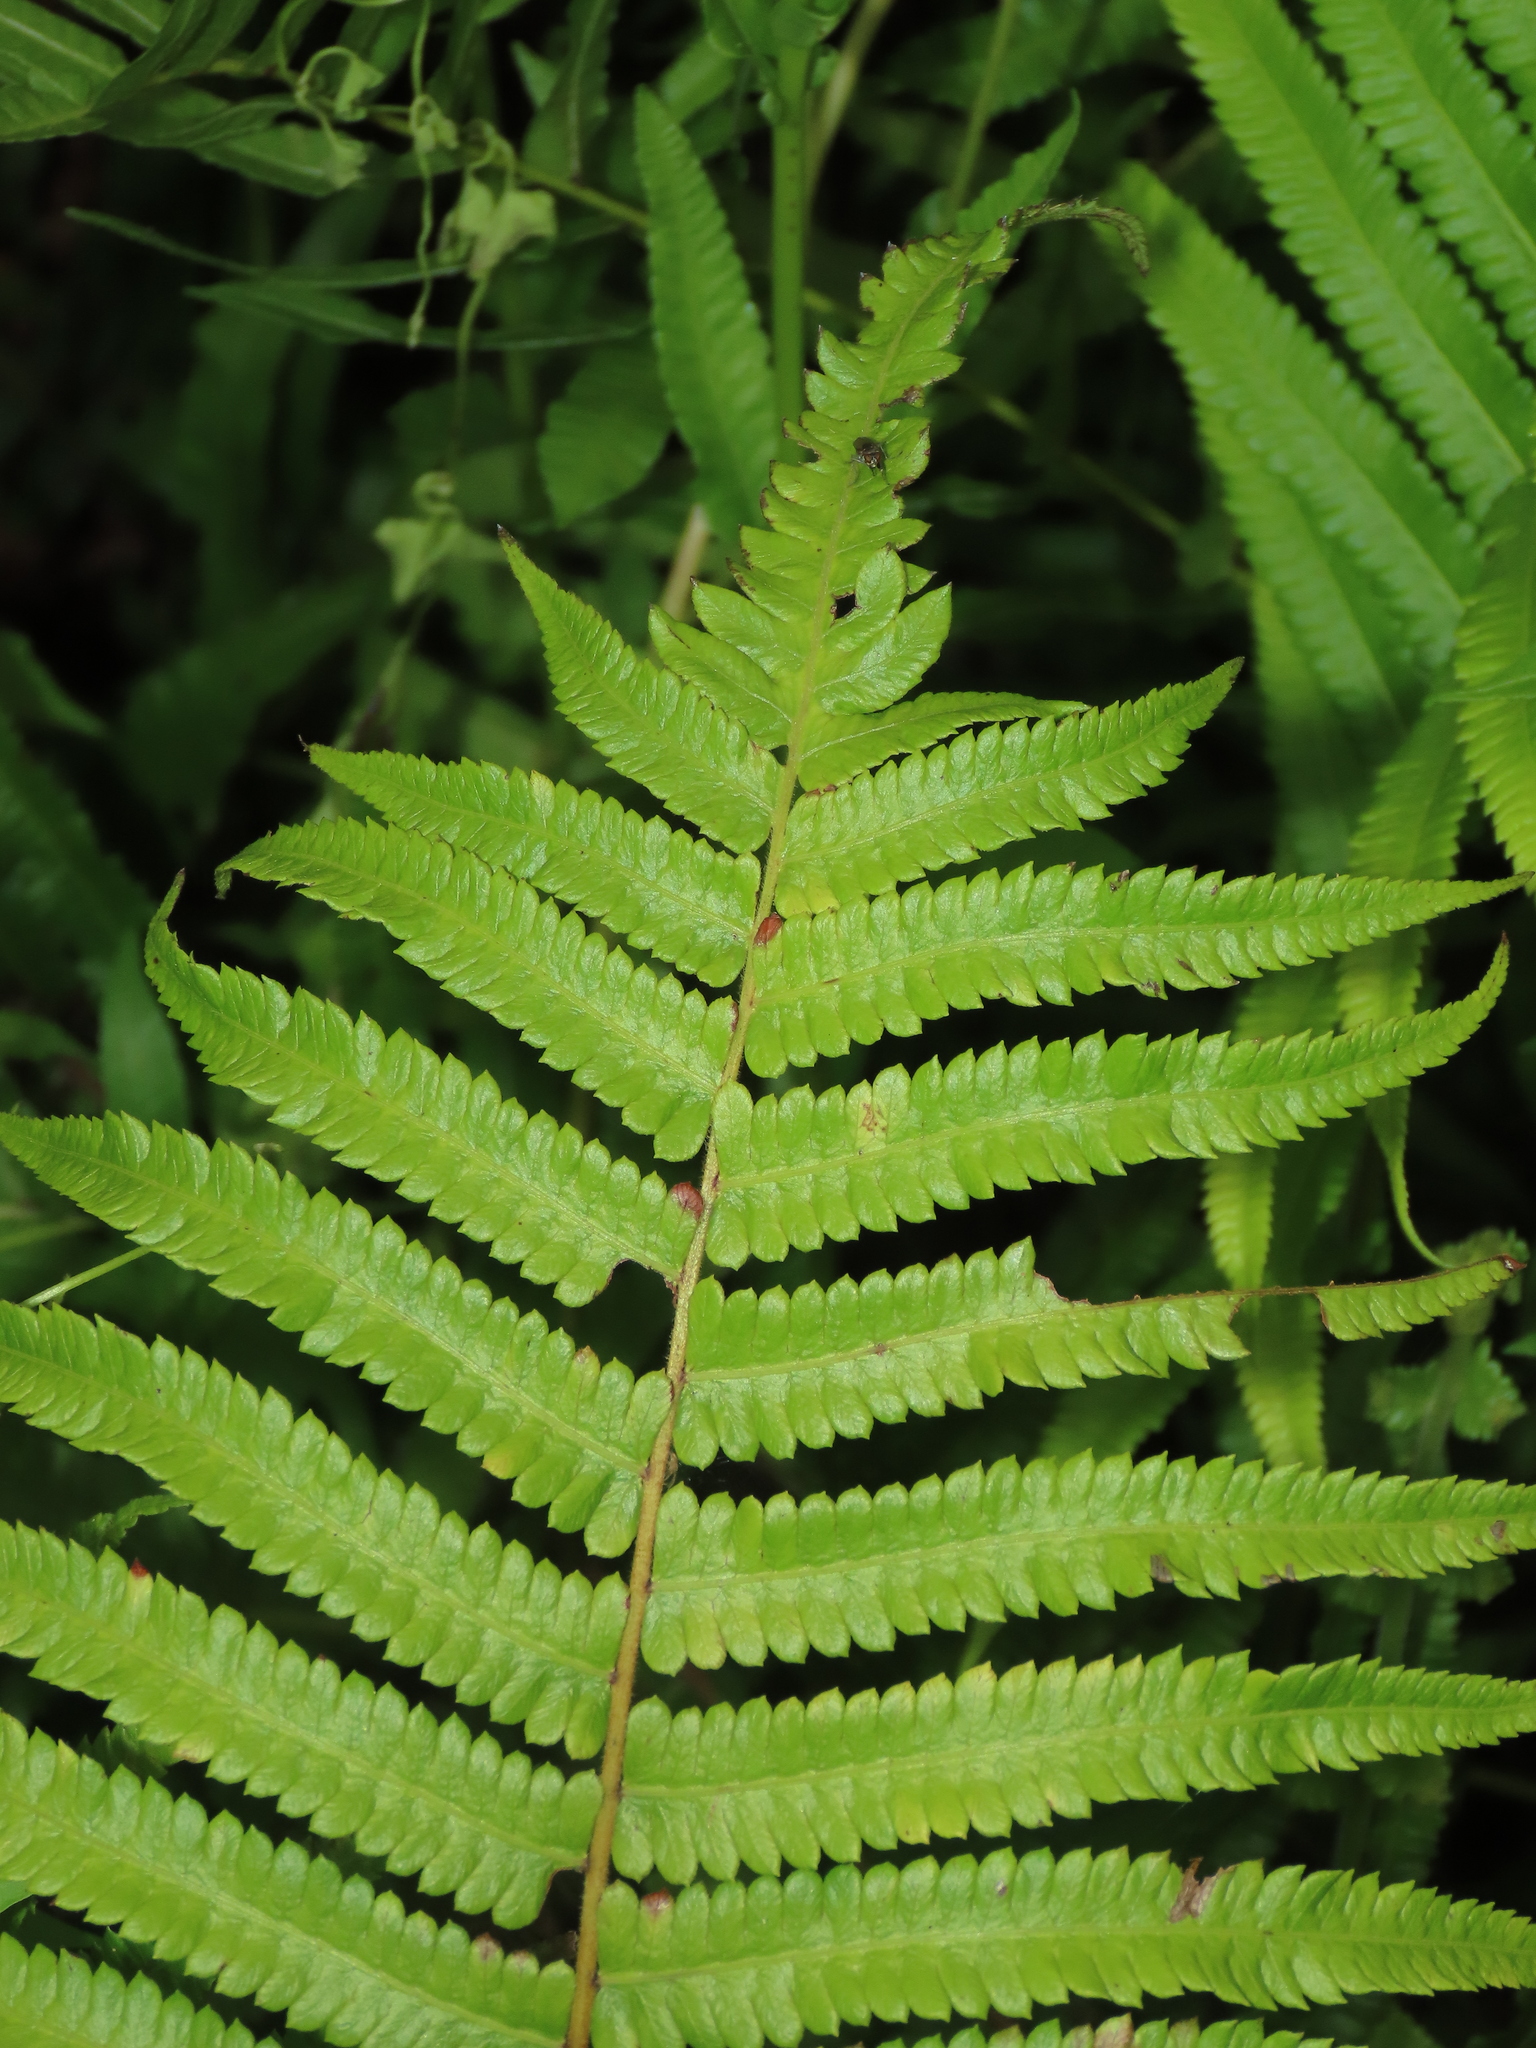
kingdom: Plantae
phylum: Tracheophyta
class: Polypodiopsida
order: Polypodiales
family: Thelypteridaceae
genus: Christella
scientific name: Christella arida
